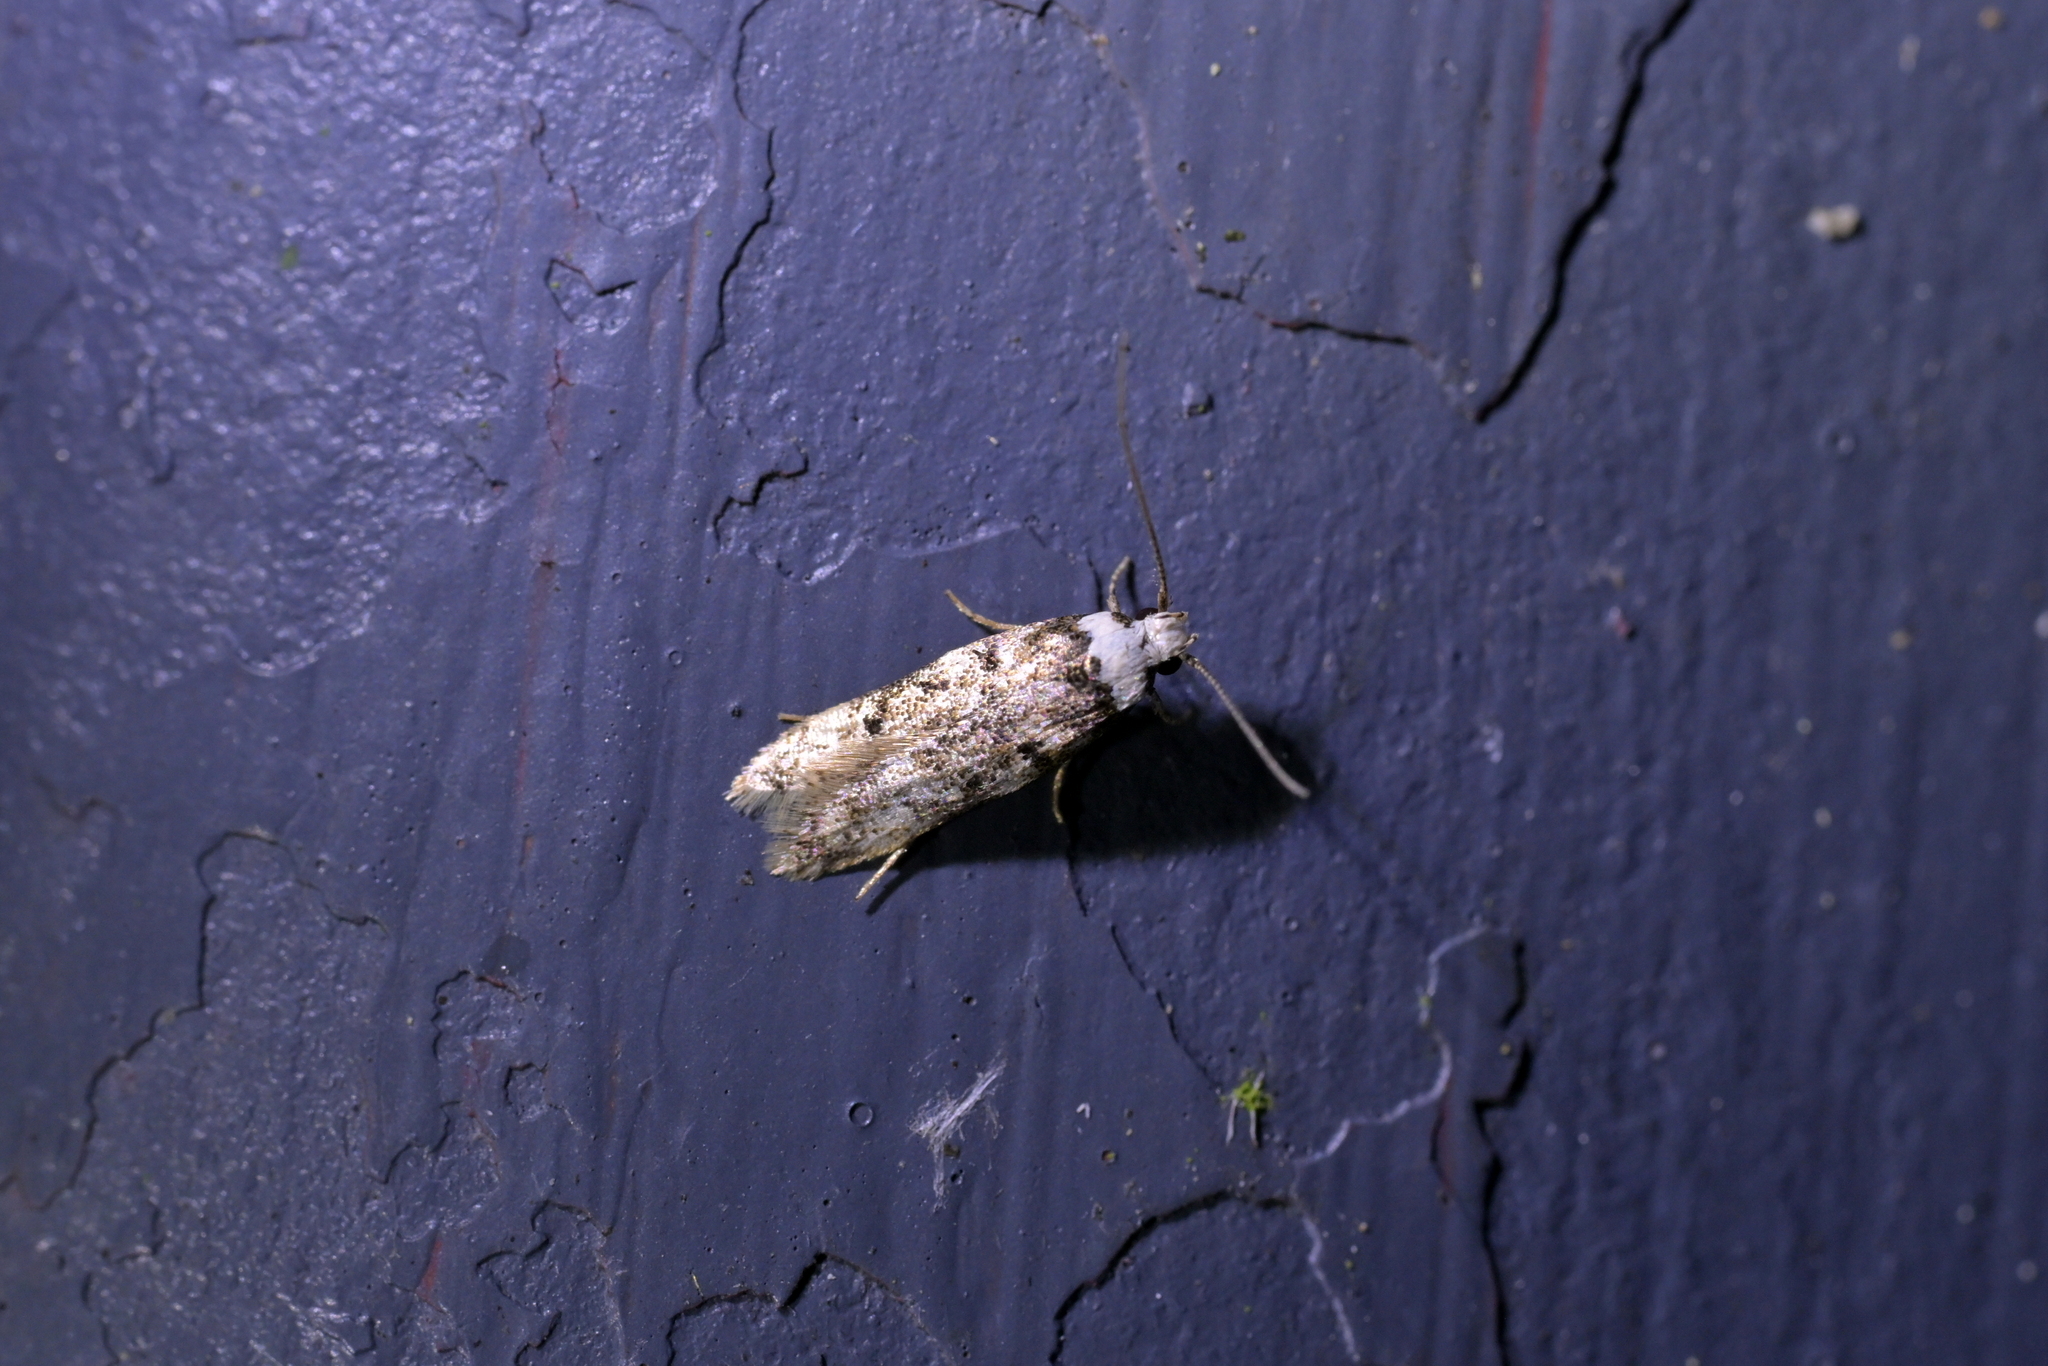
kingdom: Animalia
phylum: Arthropoda
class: Insecta
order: Lepidoptera
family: Oecophoridae
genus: Endrosis
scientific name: Endrosis sarcitrella
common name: White-shouldered house moth
